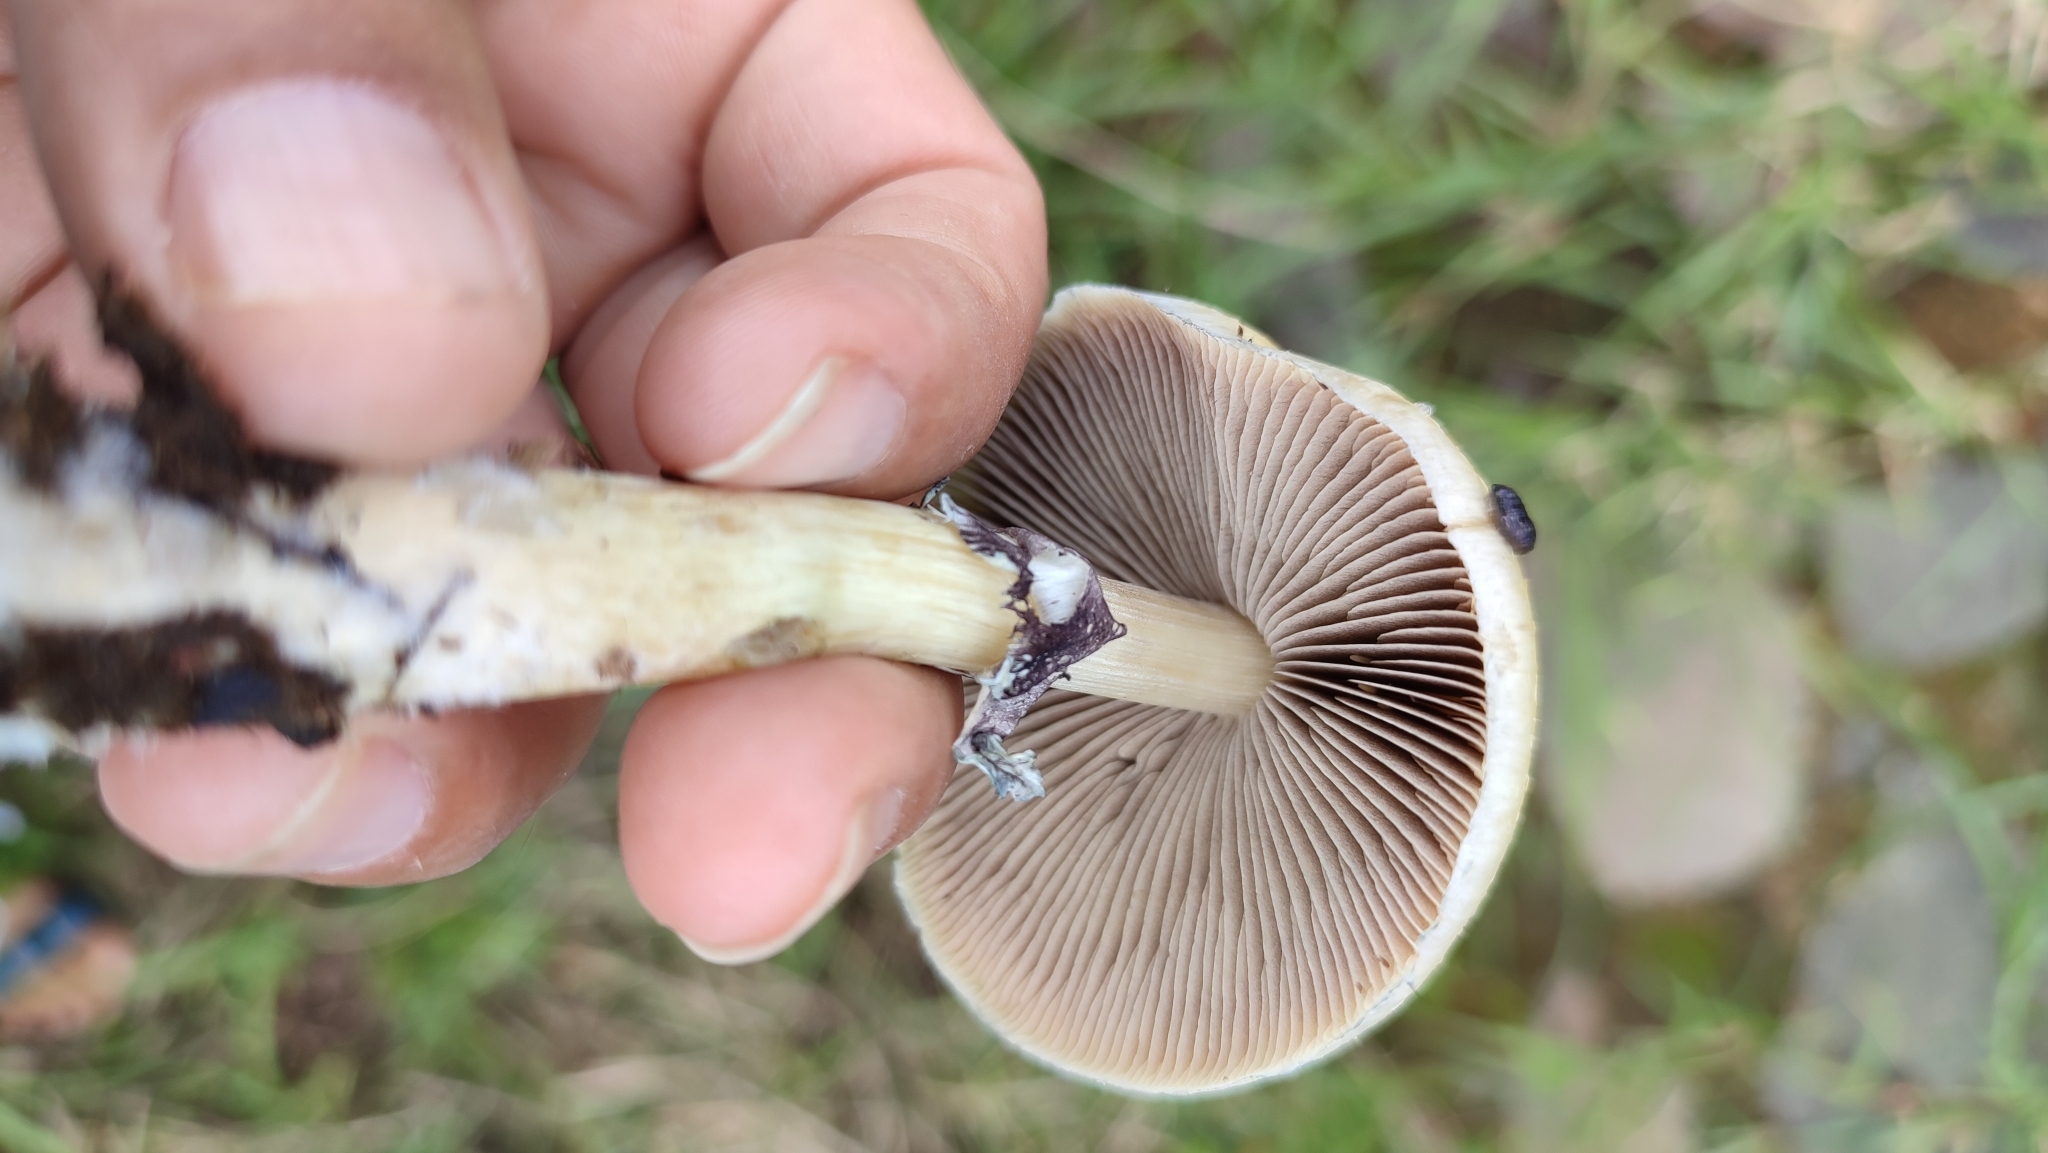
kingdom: Fungi
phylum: Basidiomycota
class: Agaricomycetes
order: Agaricales
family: Hymenogastraceae
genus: Psilocybe
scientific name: Psilocybe cubensis
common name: Golden brownie
